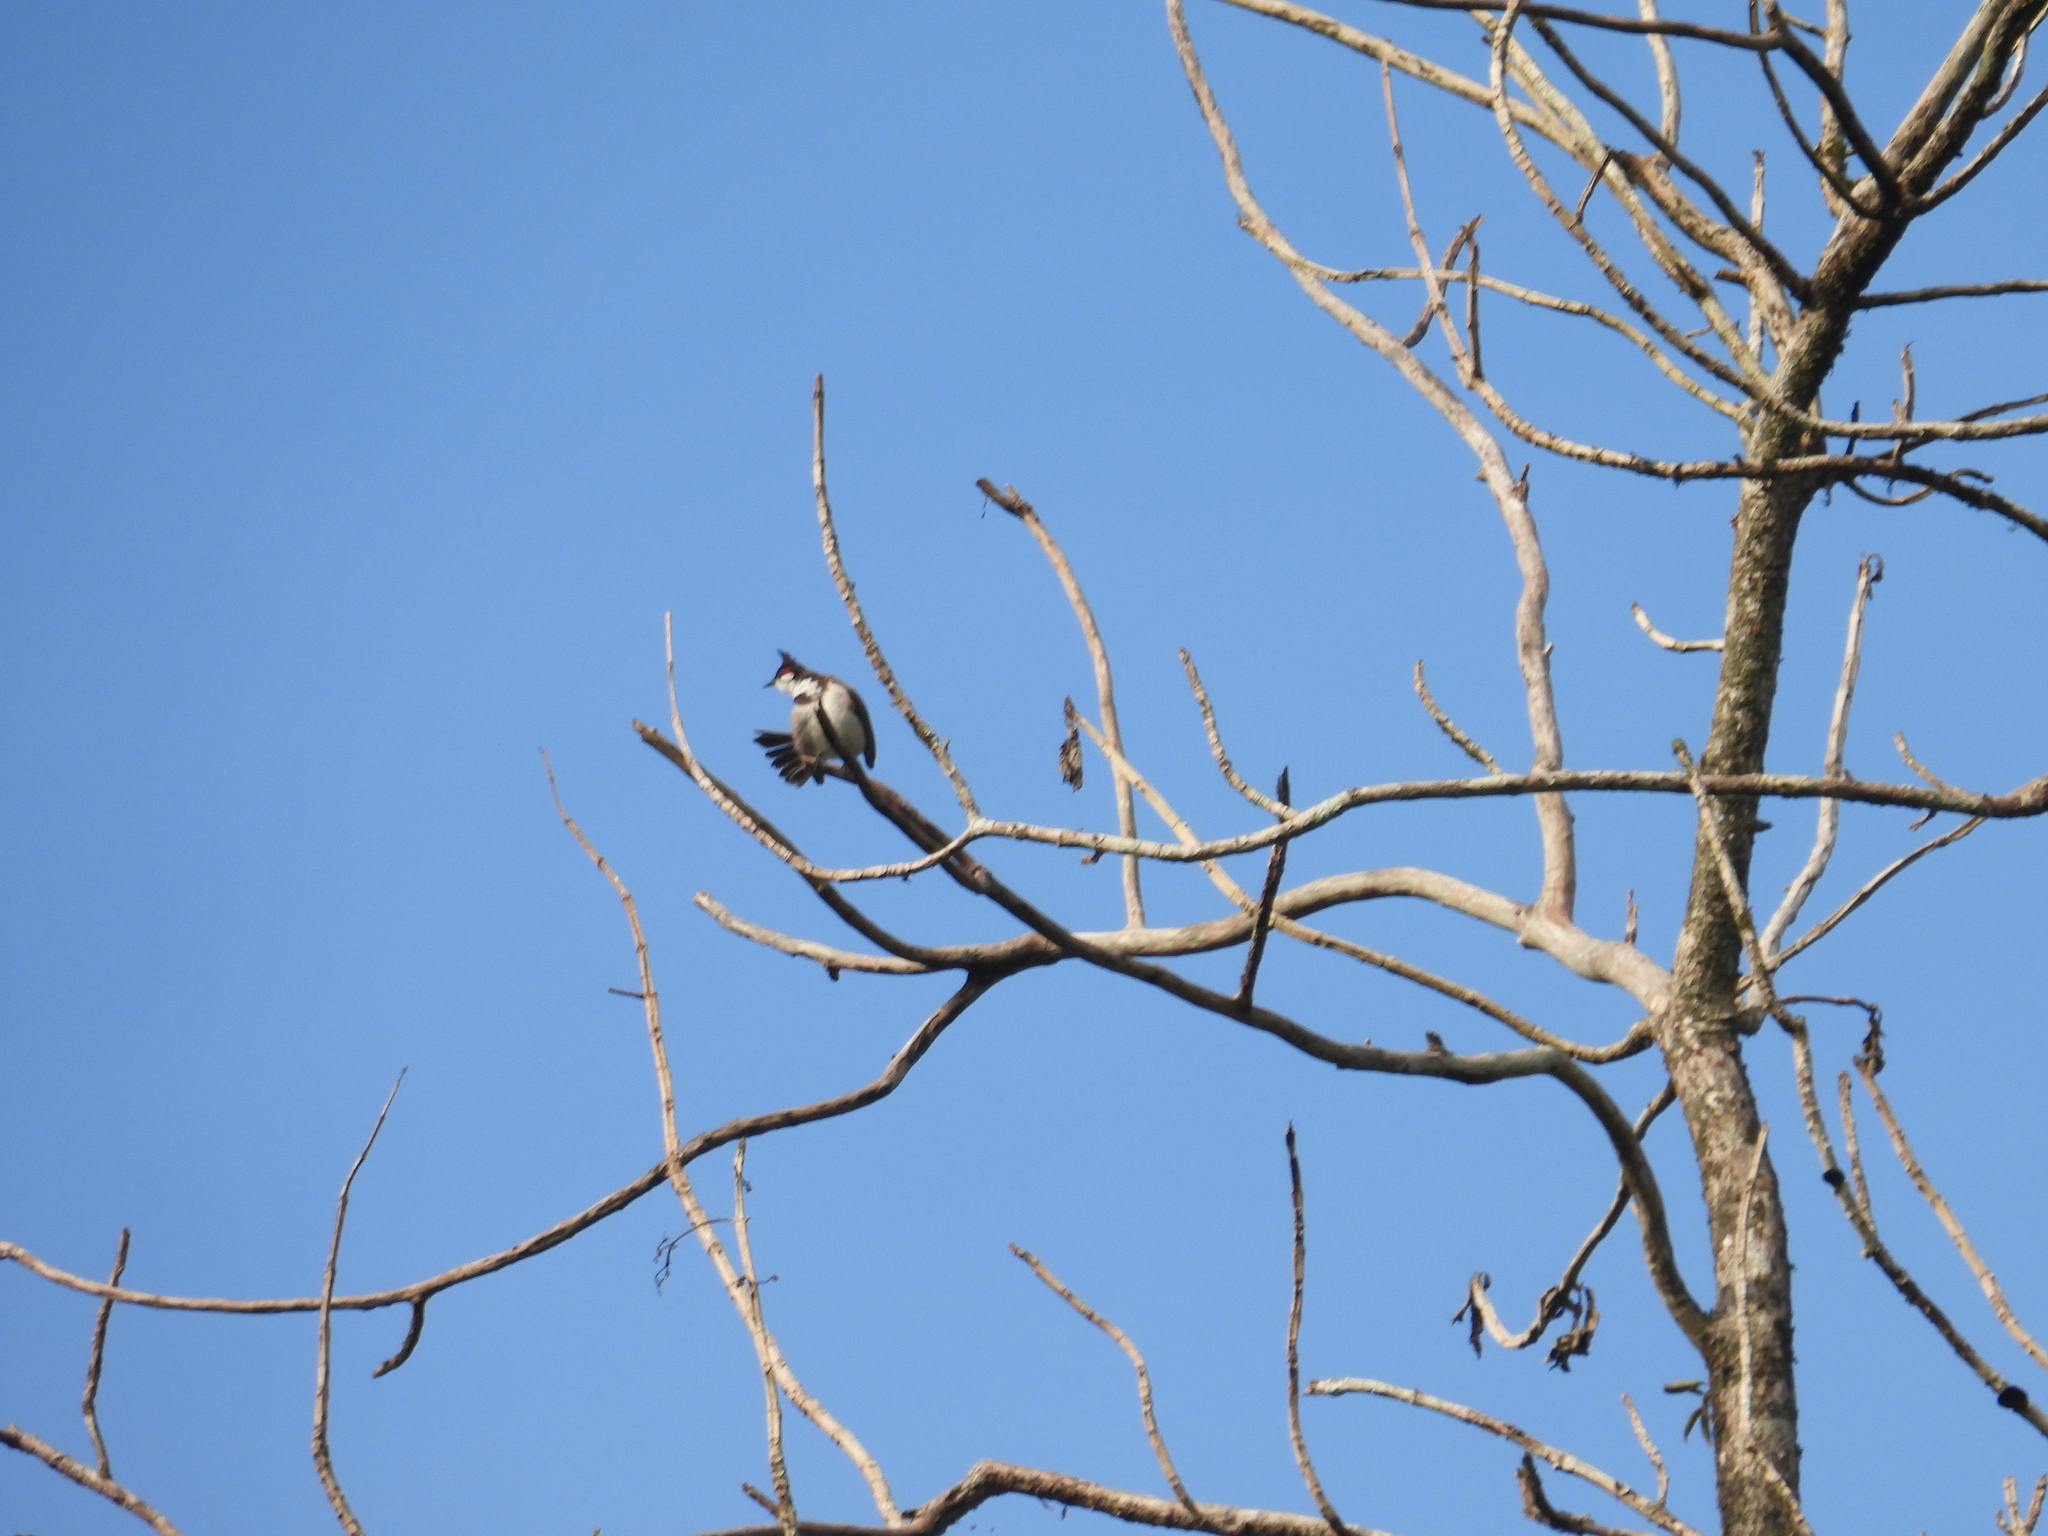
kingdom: Animalia
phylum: Chordata
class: Aves
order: Passeriformes
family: Pycnonotidae
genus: Pycnonotus
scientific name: Pycnonotus jocosus
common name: Red-whiskered bulbul
